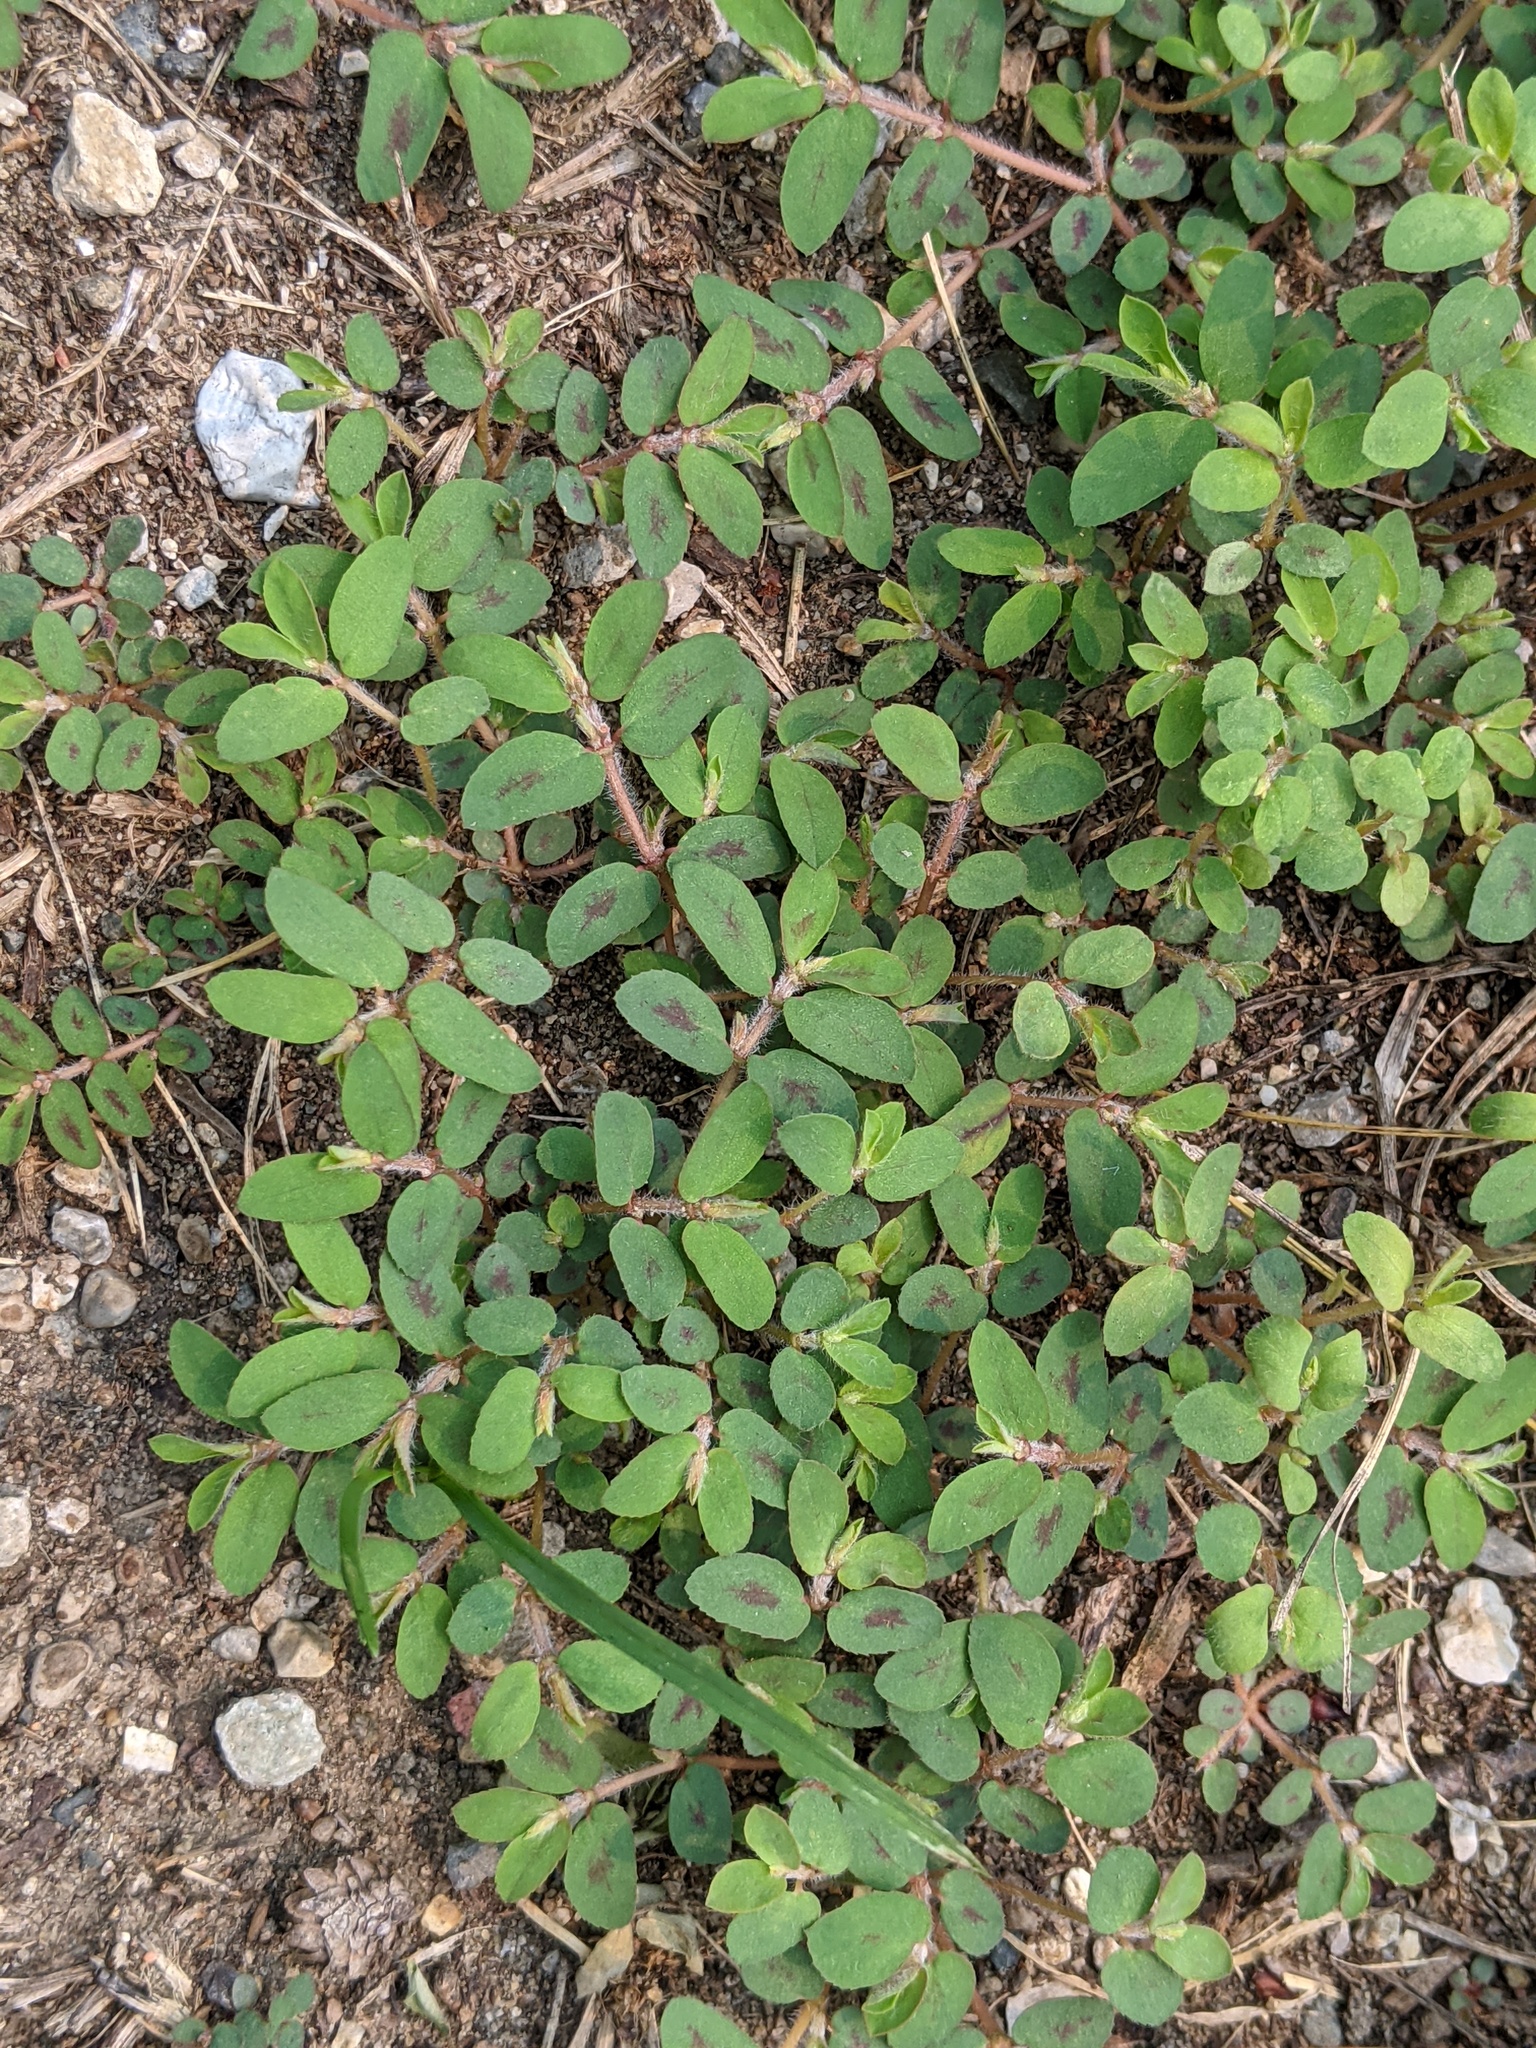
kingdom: Plantae
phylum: Tracheophyta
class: Magnoliopsida
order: Malpighiales
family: Euphorbiaceae
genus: Euphorbia
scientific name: Euphorbia maculata
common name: Spotted spurge
